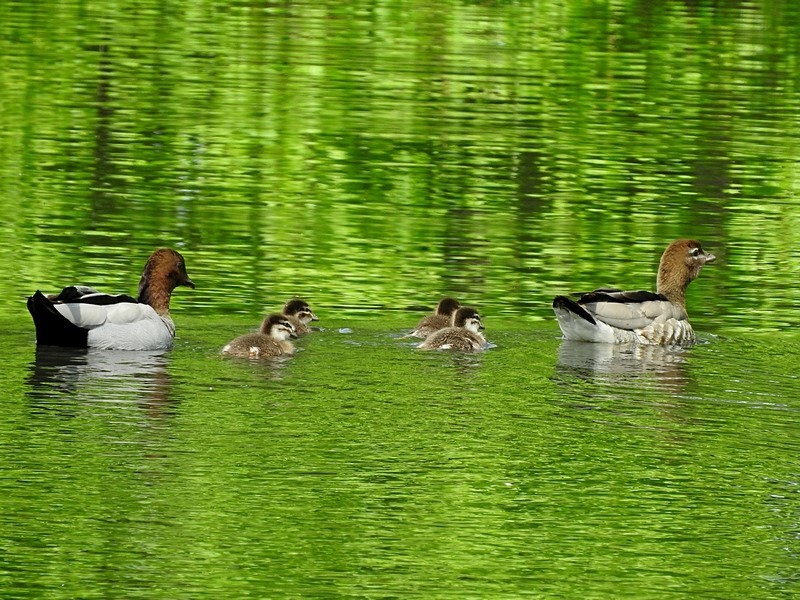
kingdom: Animalia
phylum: Chordata
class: Aves
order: Anseriformes
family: Anatidae
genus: Chenonetta
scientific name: Chenonetta jubata
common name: Maned duck
